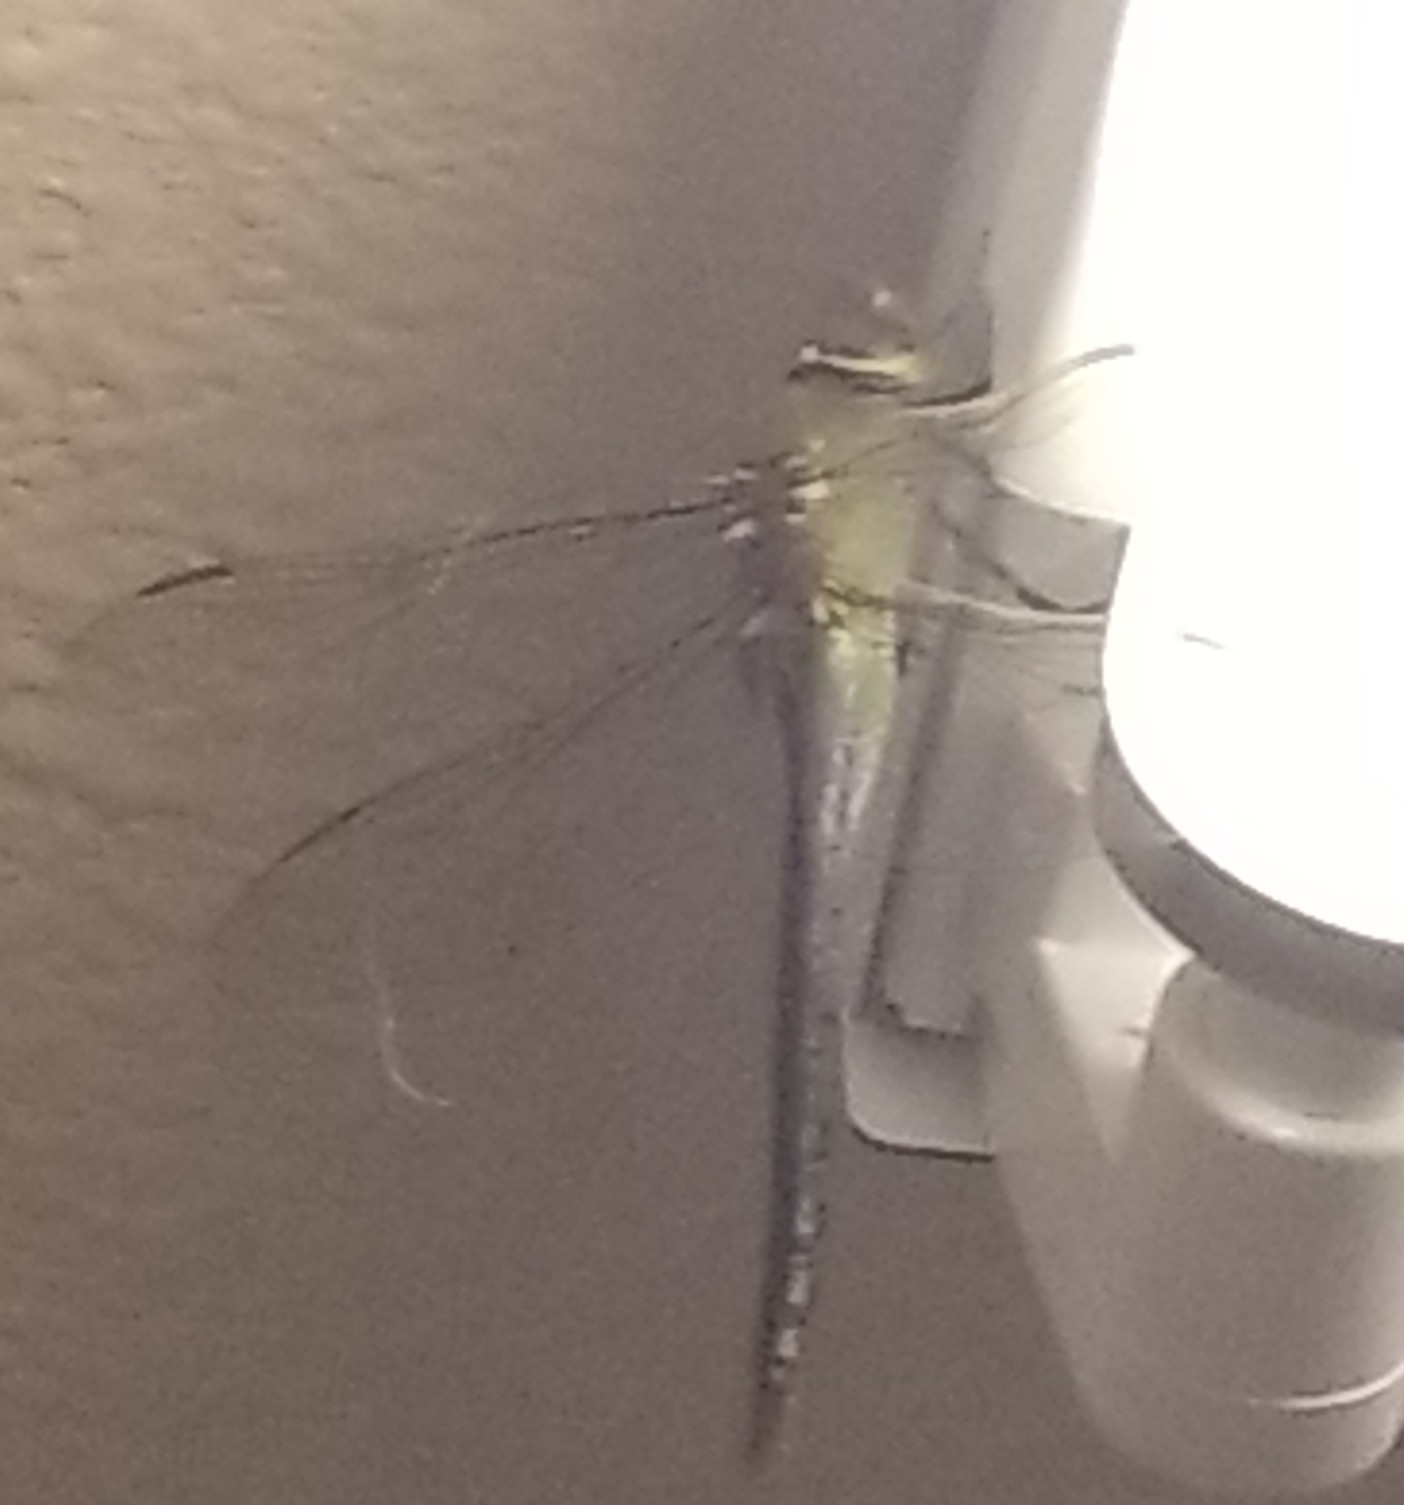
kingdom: Animalia
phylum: Arthropoda
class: Insecta
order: Odonata
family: Aeshnidae
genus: Anax
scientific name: Anax junius
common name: Common green darner
